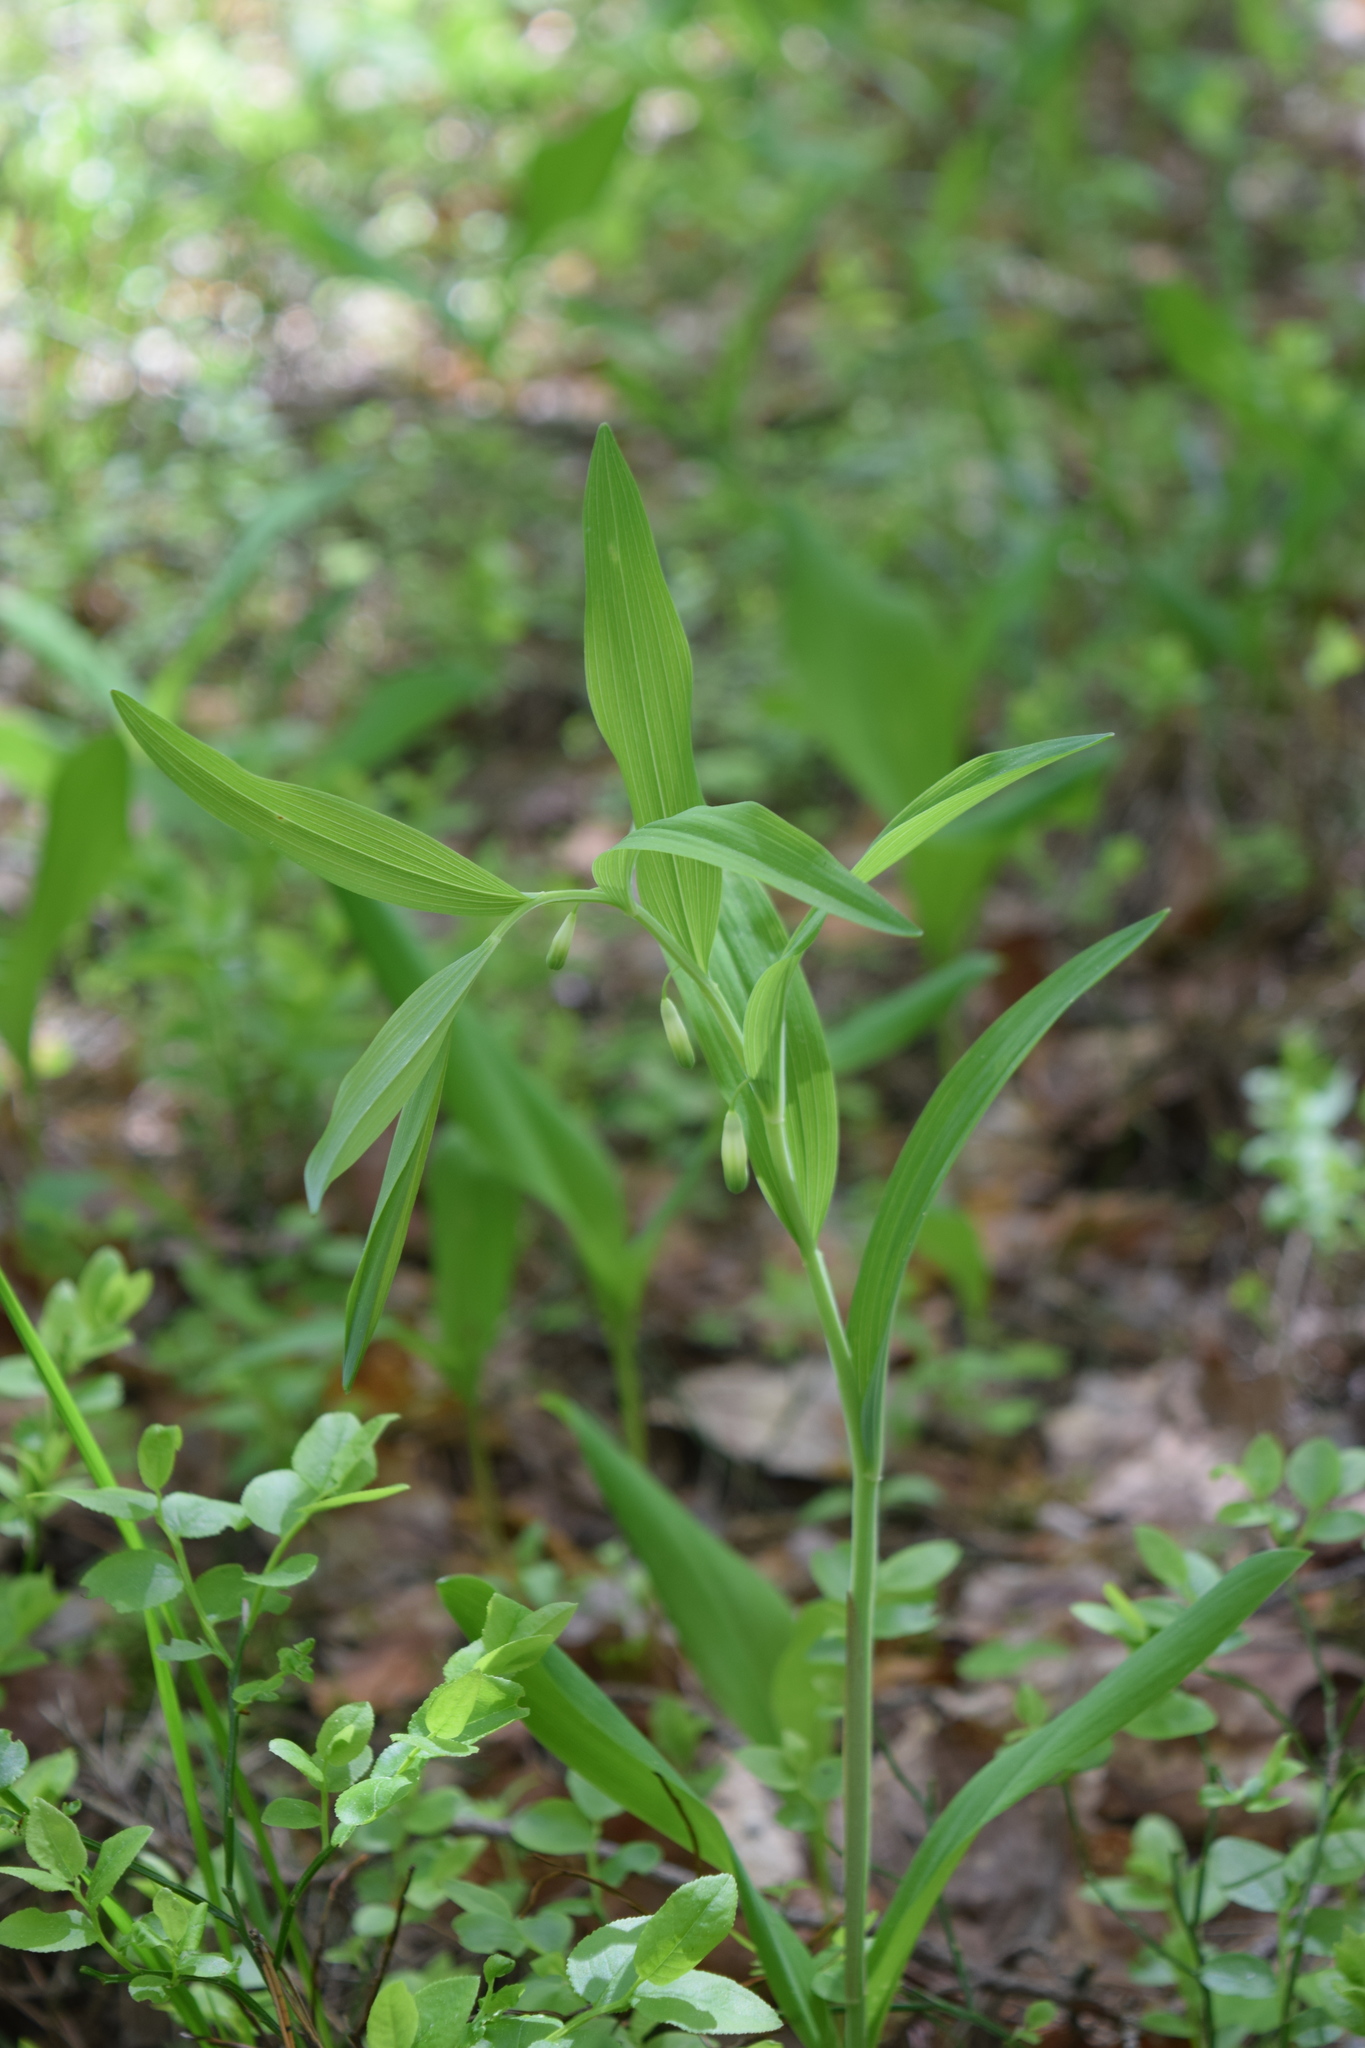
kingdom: Plantae
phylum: Tracheophyta
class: Liliopsida
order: Asparagales
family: Asparagaceae
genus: Polygonatum
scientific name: Polygonatum odoratum
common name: Angular solomon's-seal
